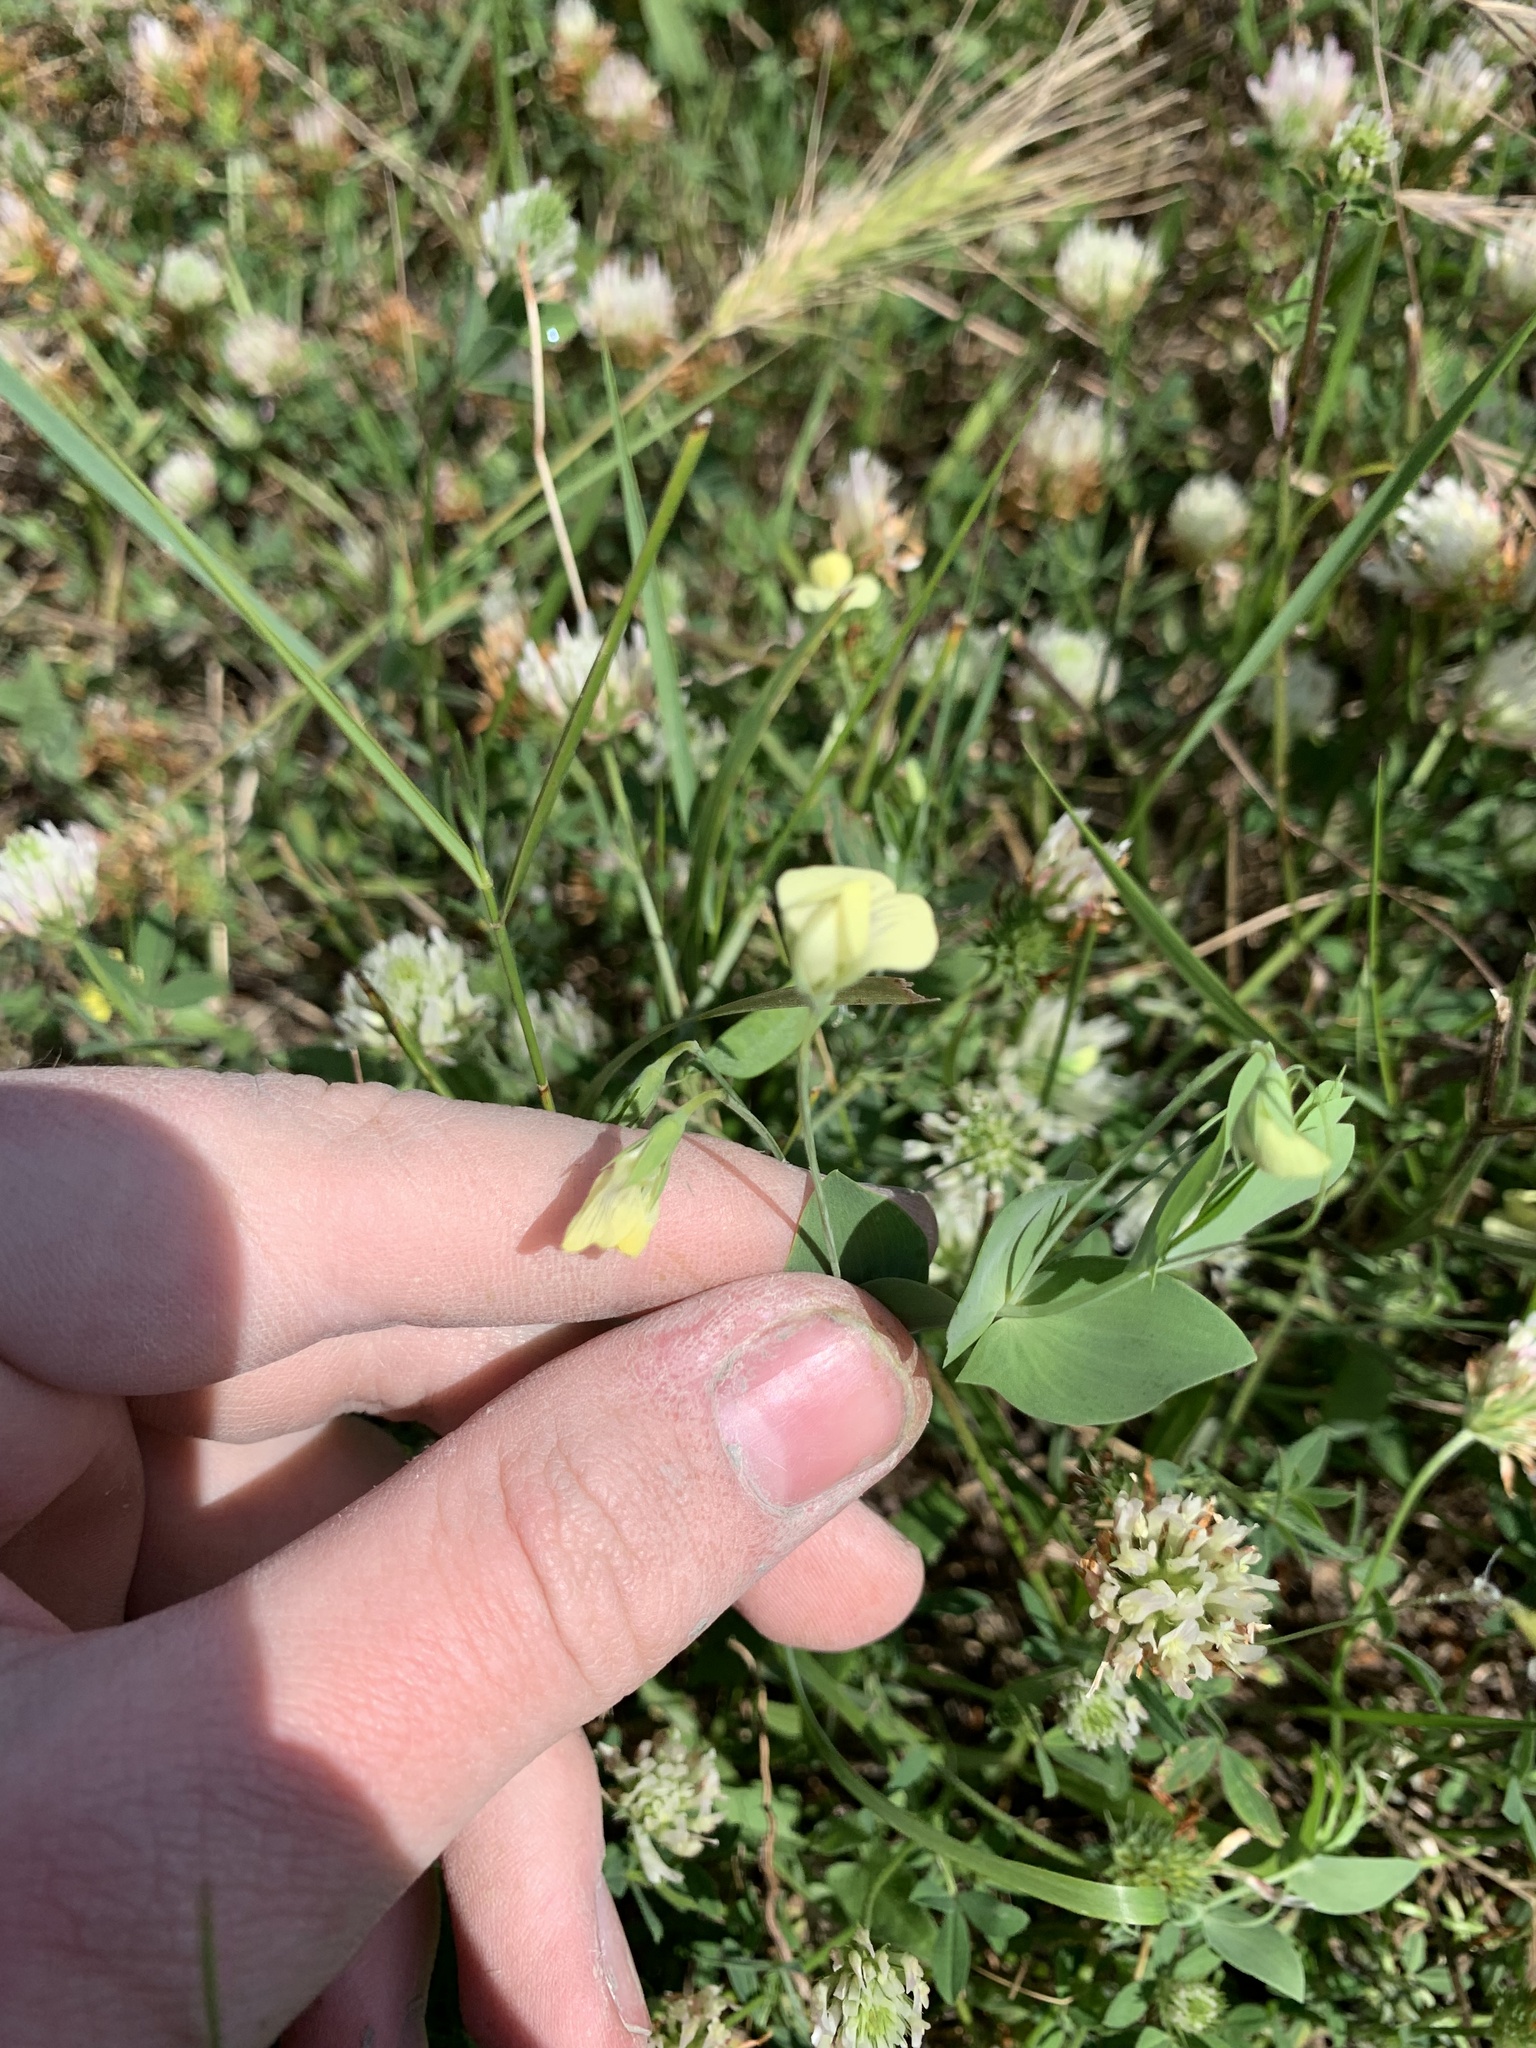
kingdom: Plantae
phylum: Tracheophyta
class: Magnoliopsida
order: Fabales
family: Fabaceae
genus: Lathyrus
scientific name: Lathyrus aphaca
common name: Yellow vetchling
